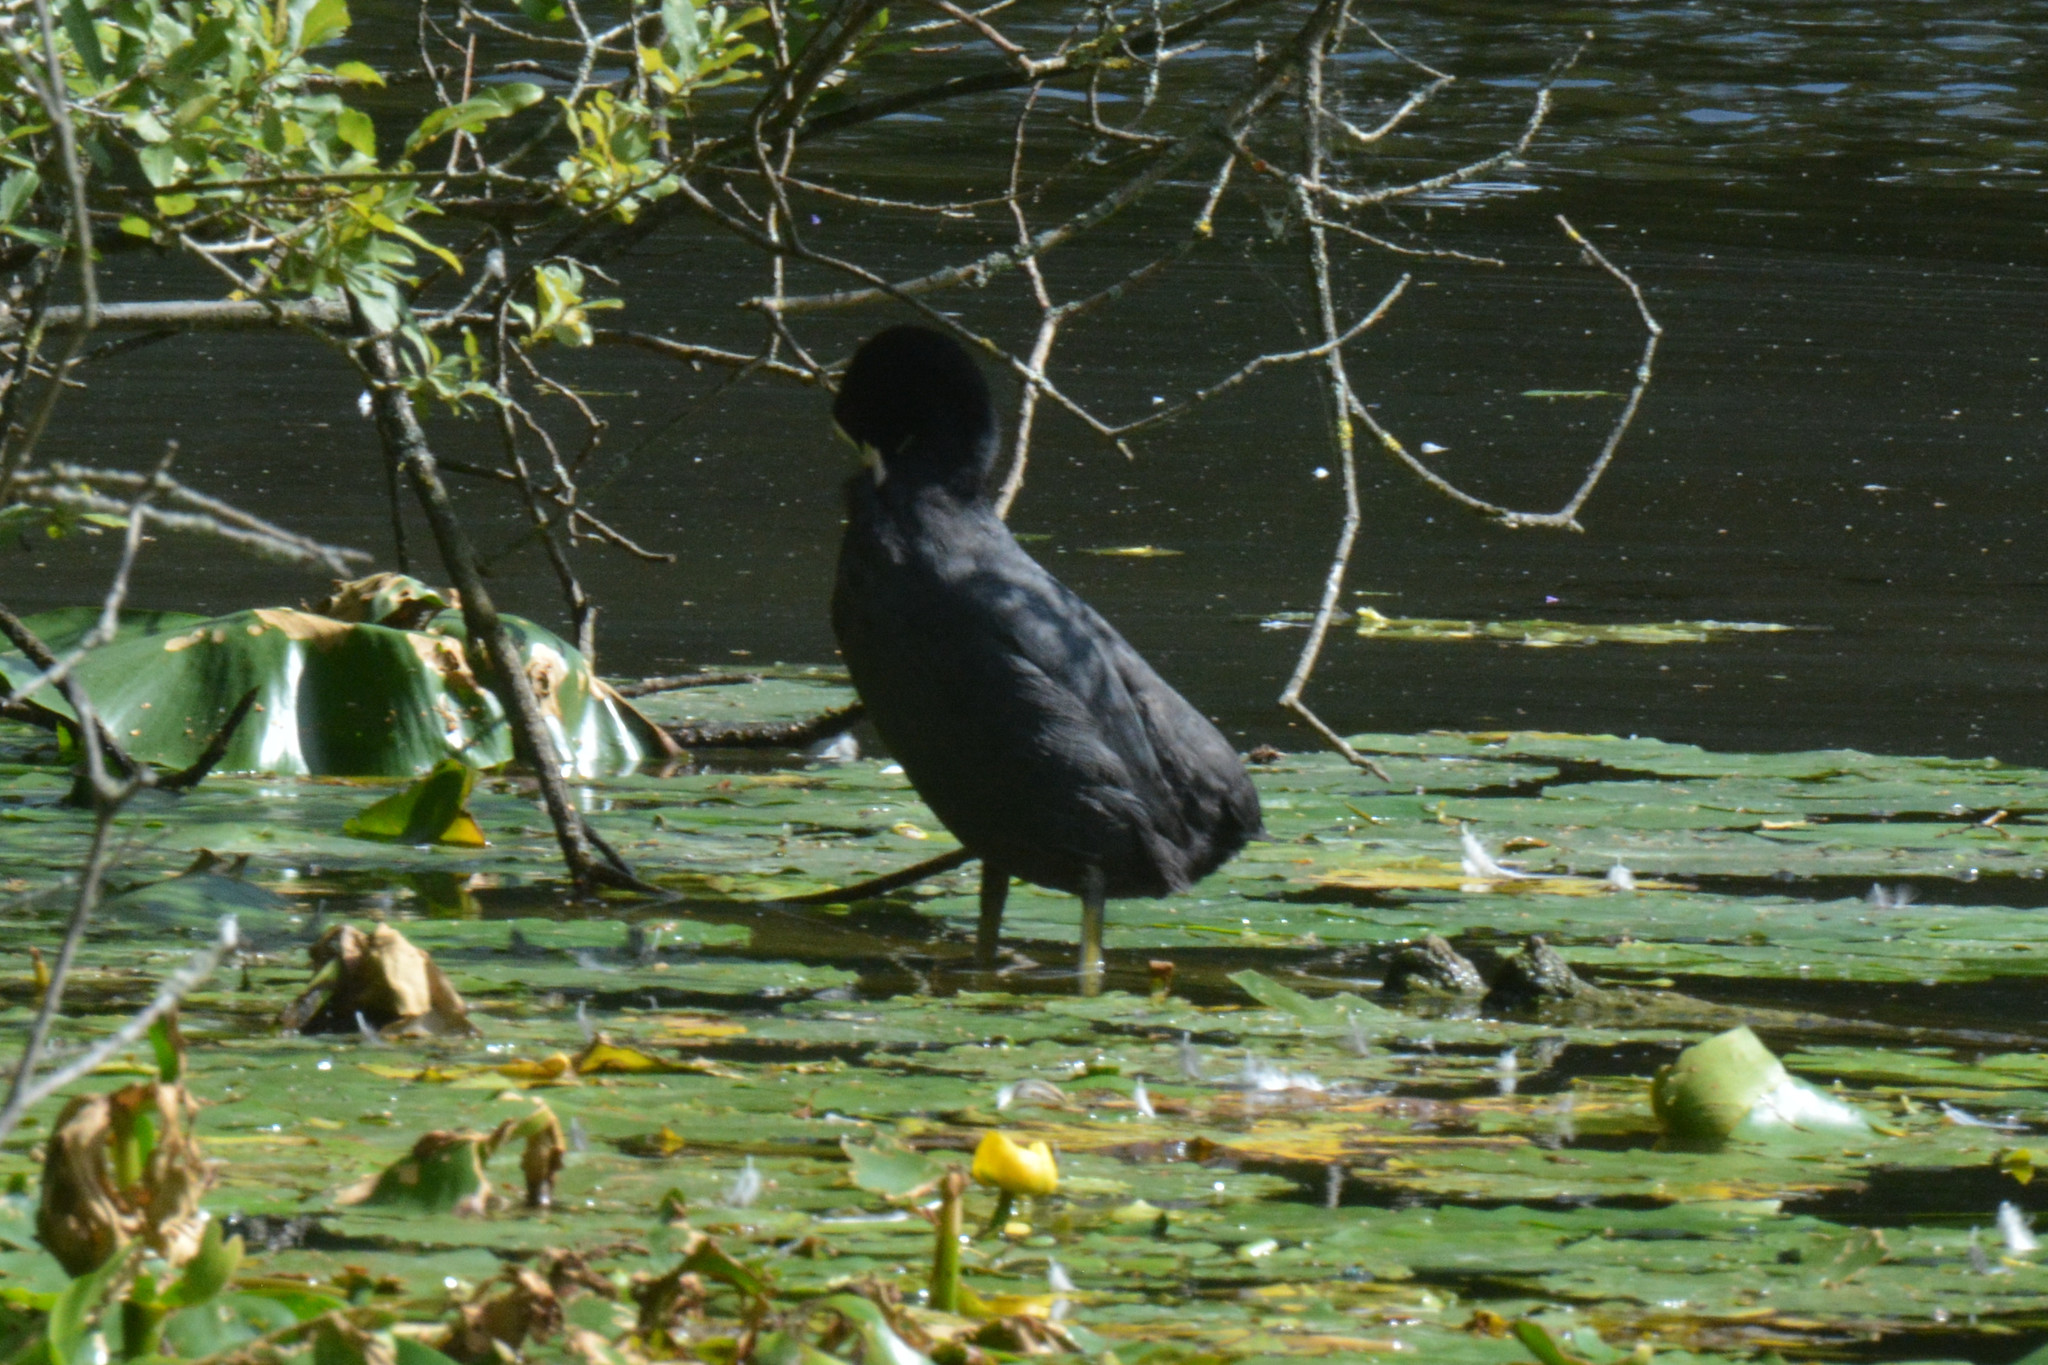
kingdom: Animalia
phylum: Chordata
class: Aves
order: Gruiformes
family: Rallidae
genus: Fulica
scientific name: Fulica atra
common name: Eurasian coot
